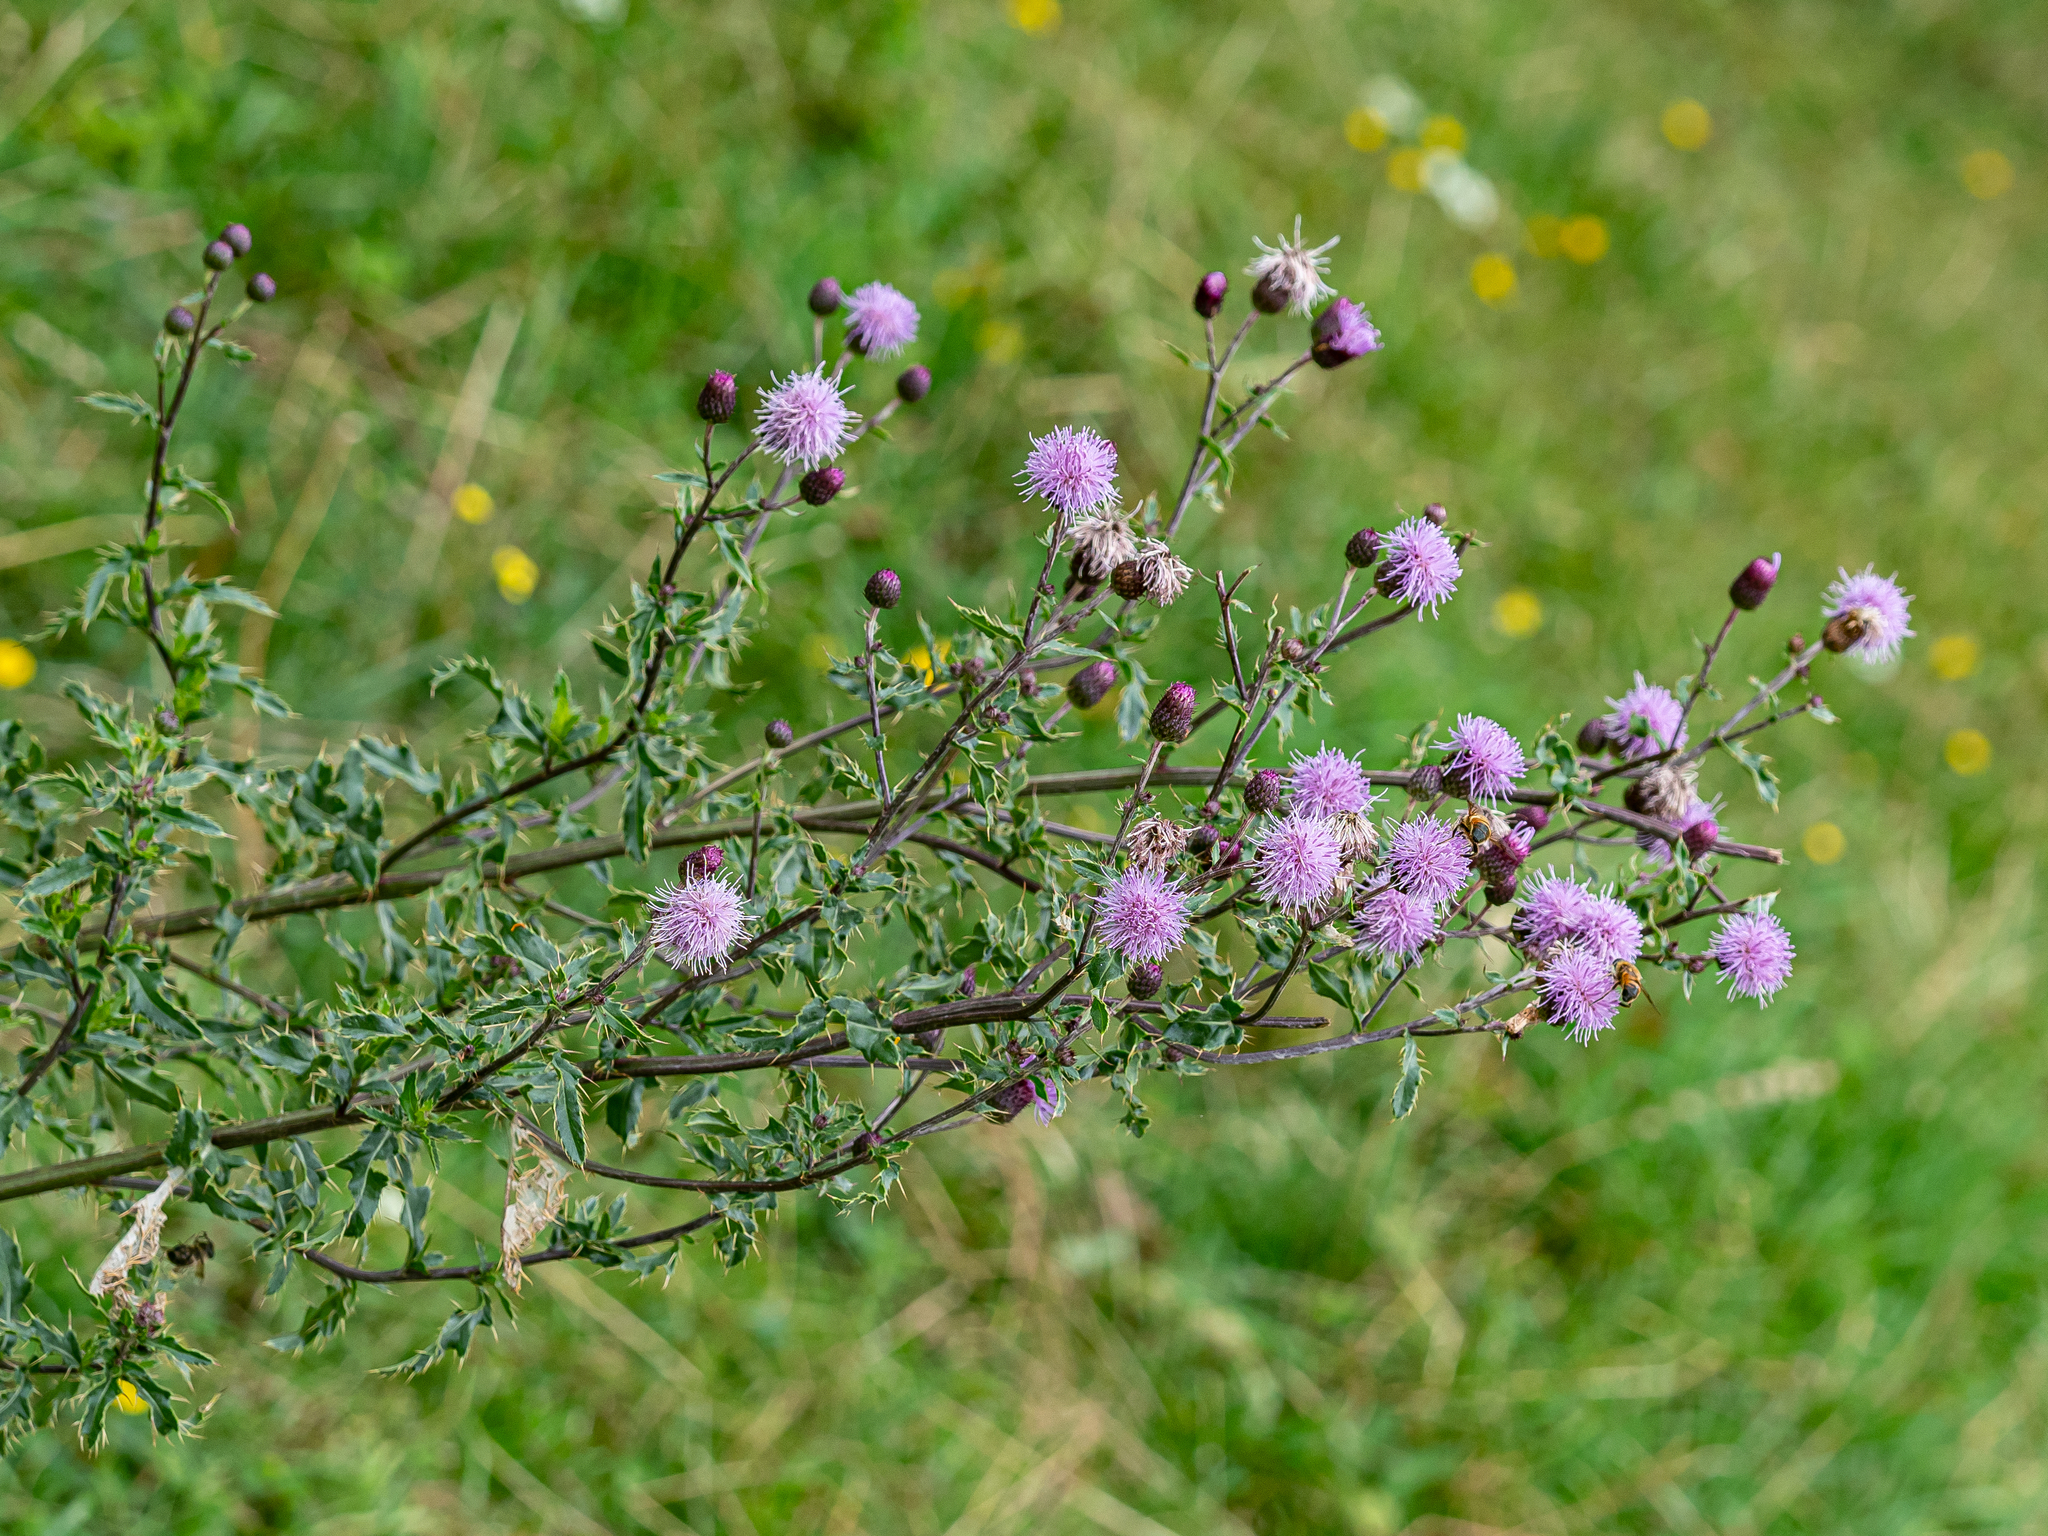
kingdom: Plantae
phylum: Tracheophyta
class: Magnoliopsida
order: Asterales
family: Asteraceae
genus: Cirsium
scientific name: Cirsium arvense
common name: Creeping thistle
